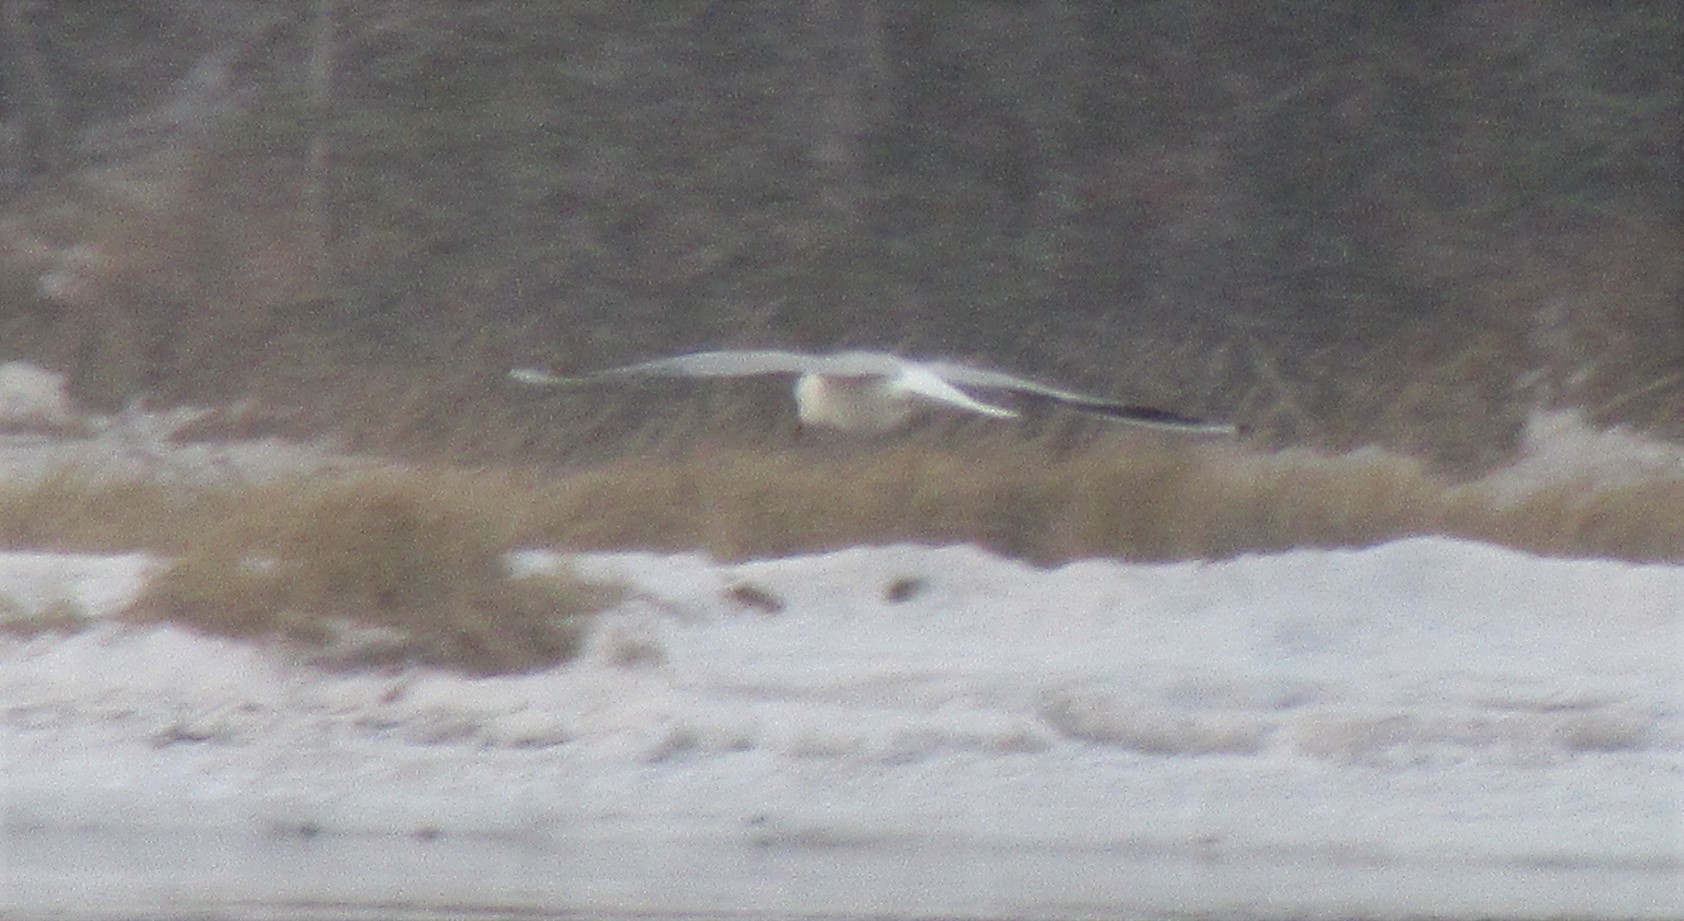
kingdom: Animalia
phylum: Chordata
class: Aves
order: Charadriiformes
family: Laridae
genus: Chroicocephalus
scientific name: Chroicocephalus ridibundus
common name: Black-headed gull
